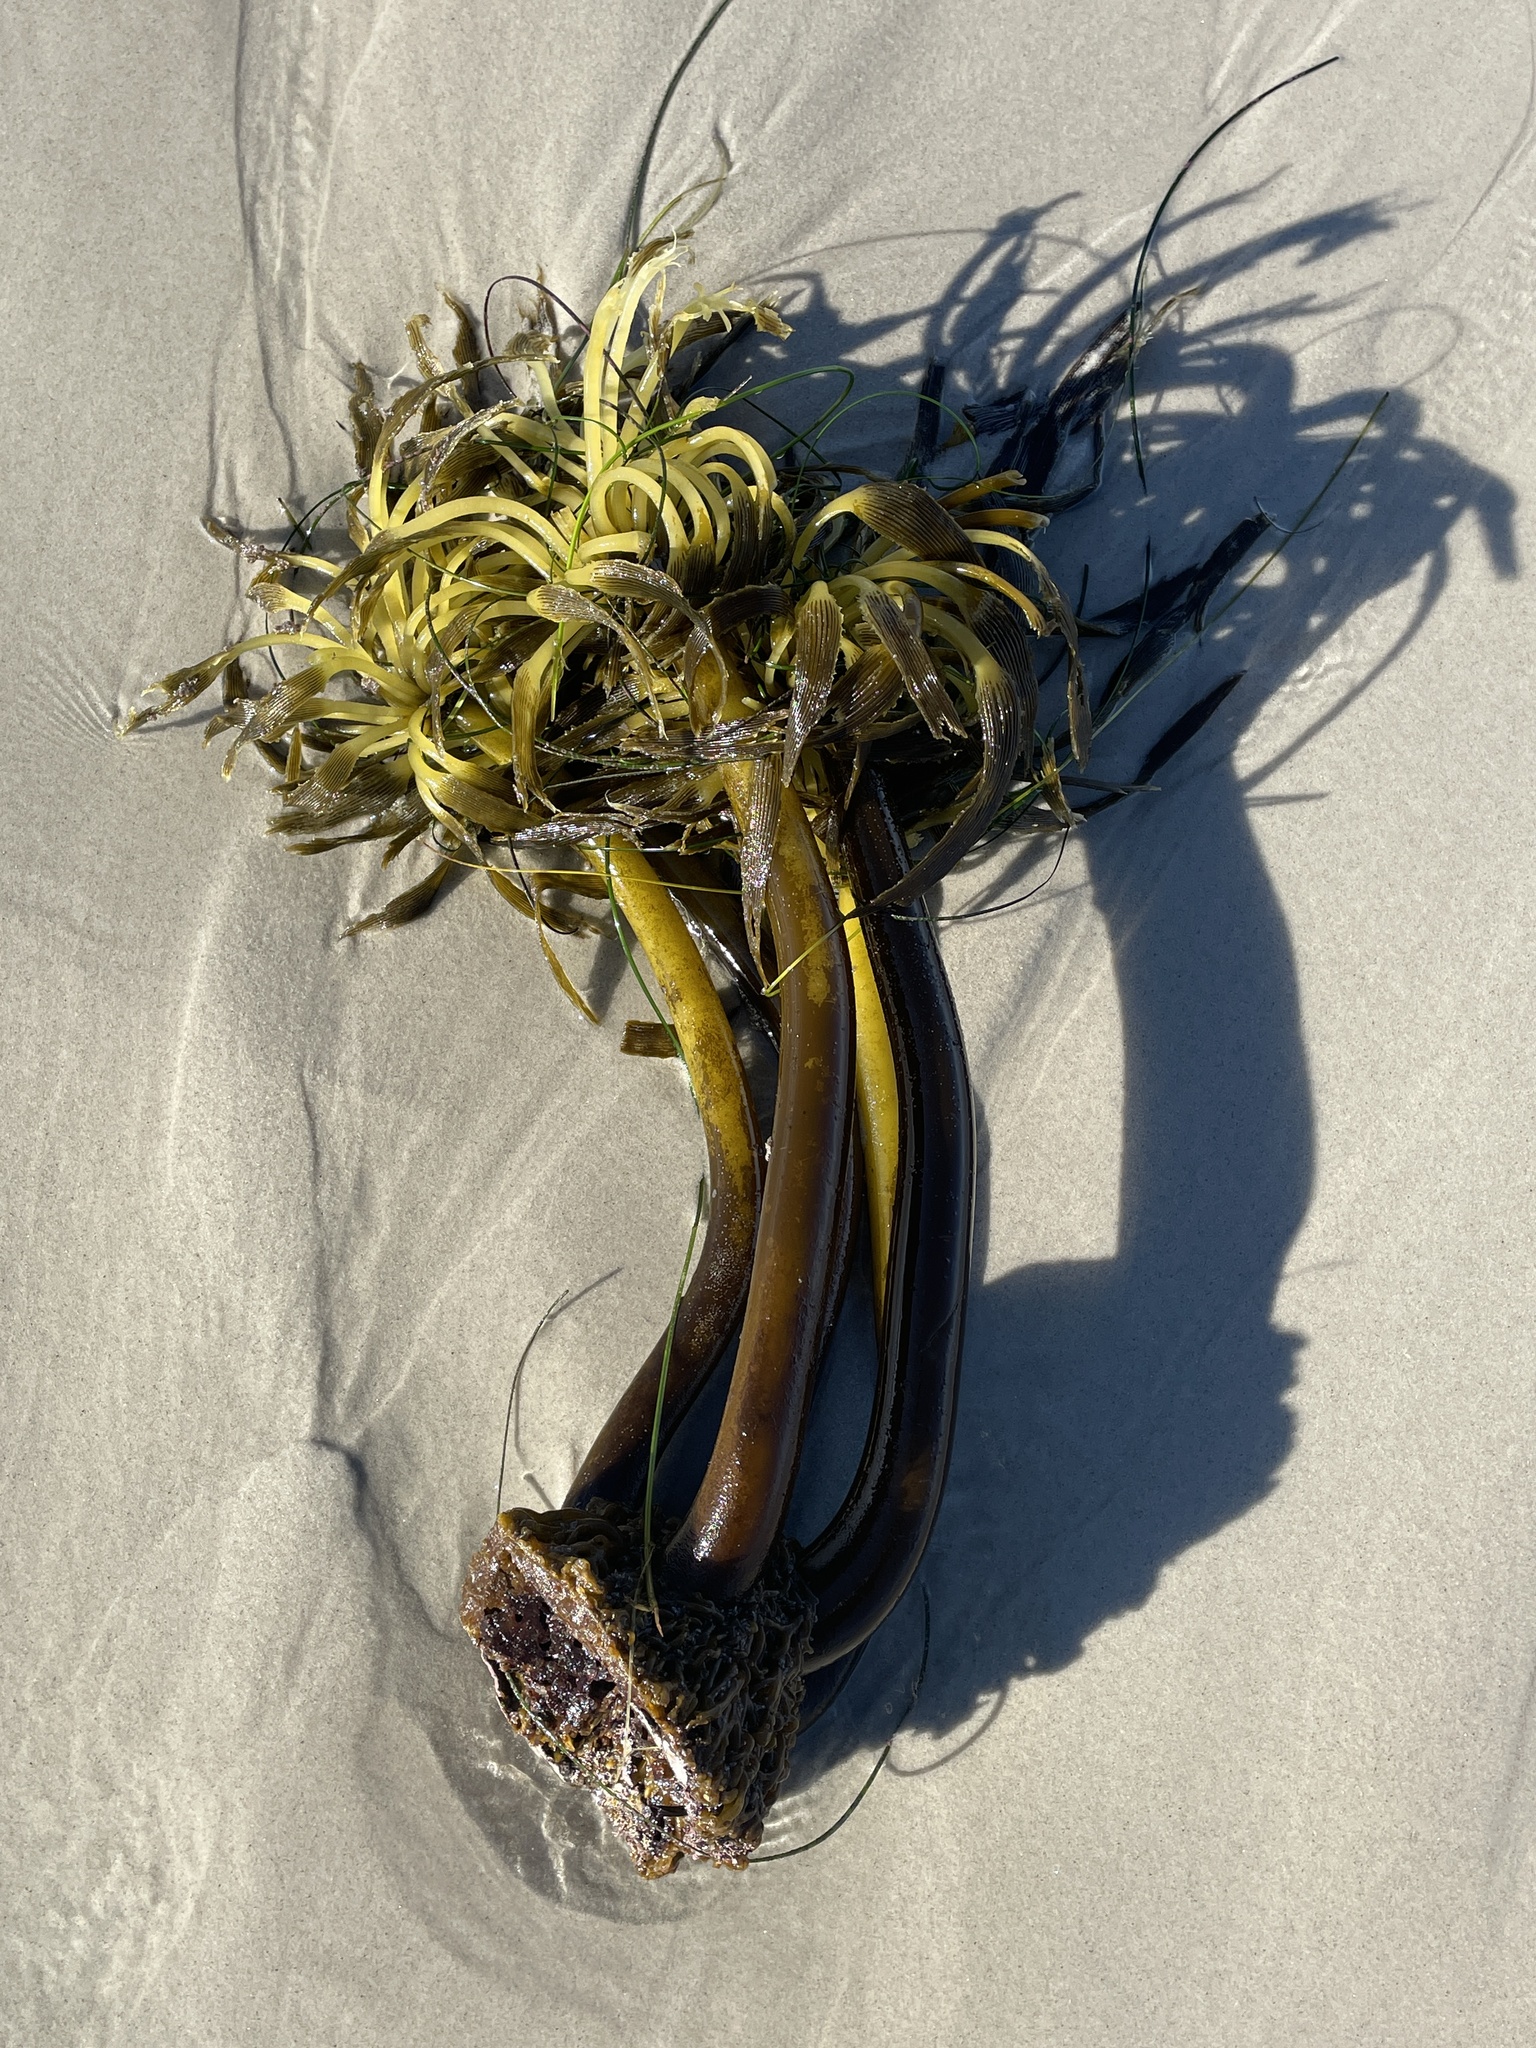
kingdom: Chromista
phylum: Ochrophyta
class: Phaeophyceae
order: Laminariales
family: Laminariaceae
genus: Postelsia
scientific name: Postelsia palmiformis
